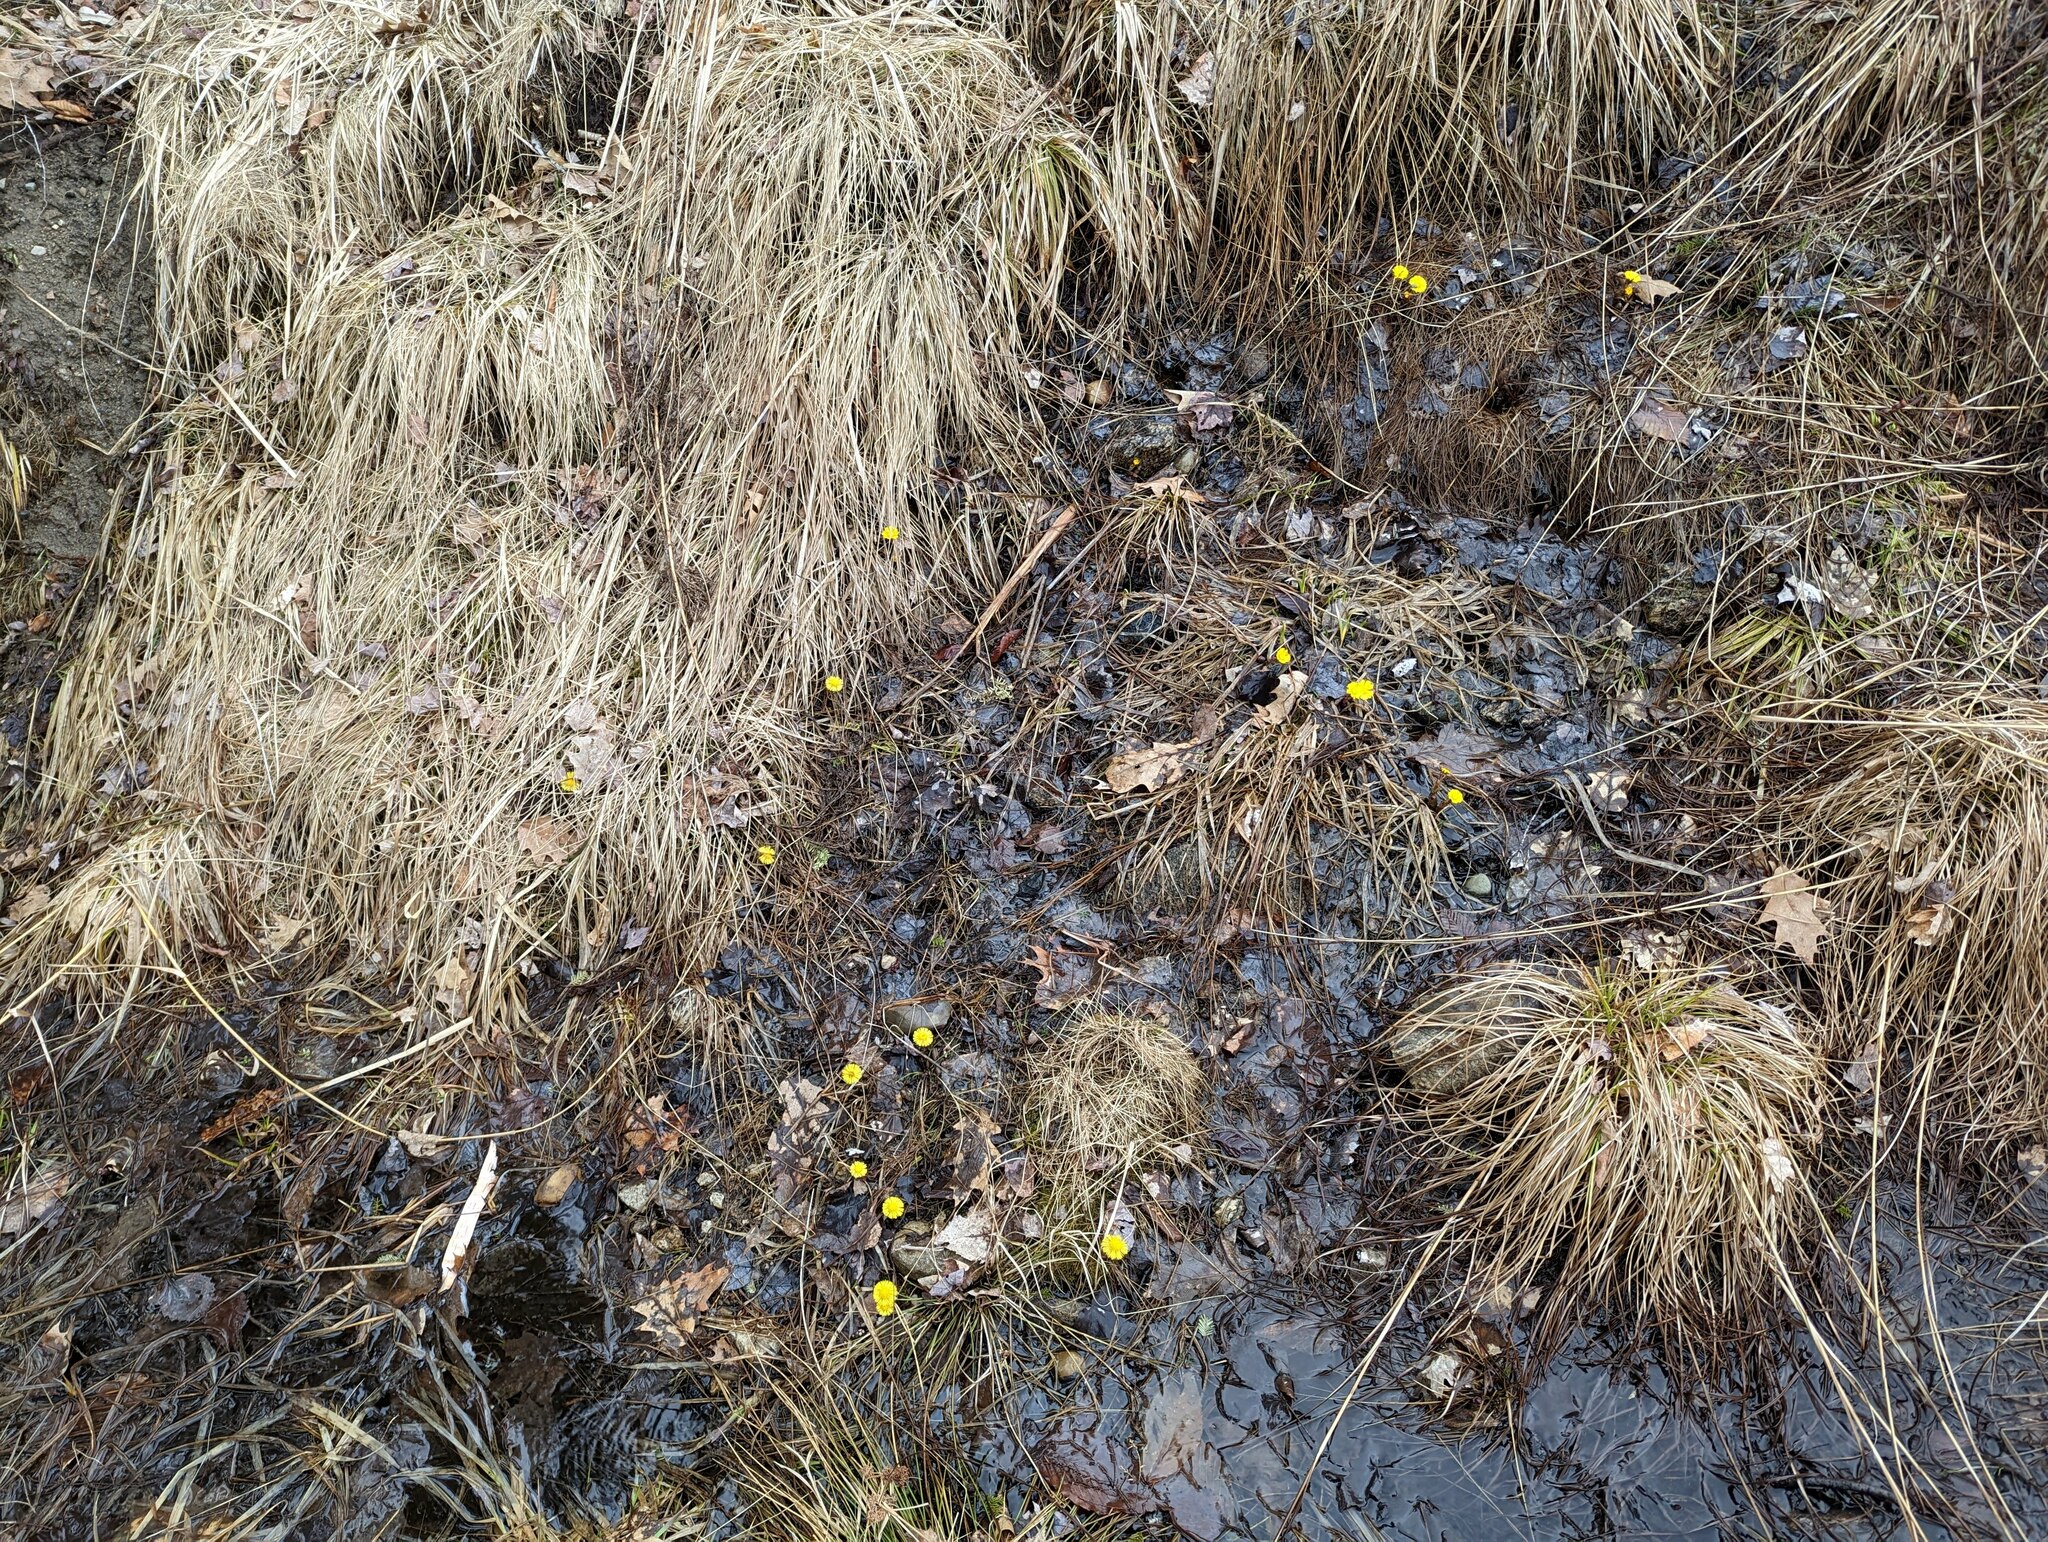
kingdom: Plantae
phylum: Tracheophyta
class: Magnoliopsida
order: Asterales
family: Asteraceae
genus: Tussilago
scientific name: Tussilago farfara
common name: Coltsfoot
